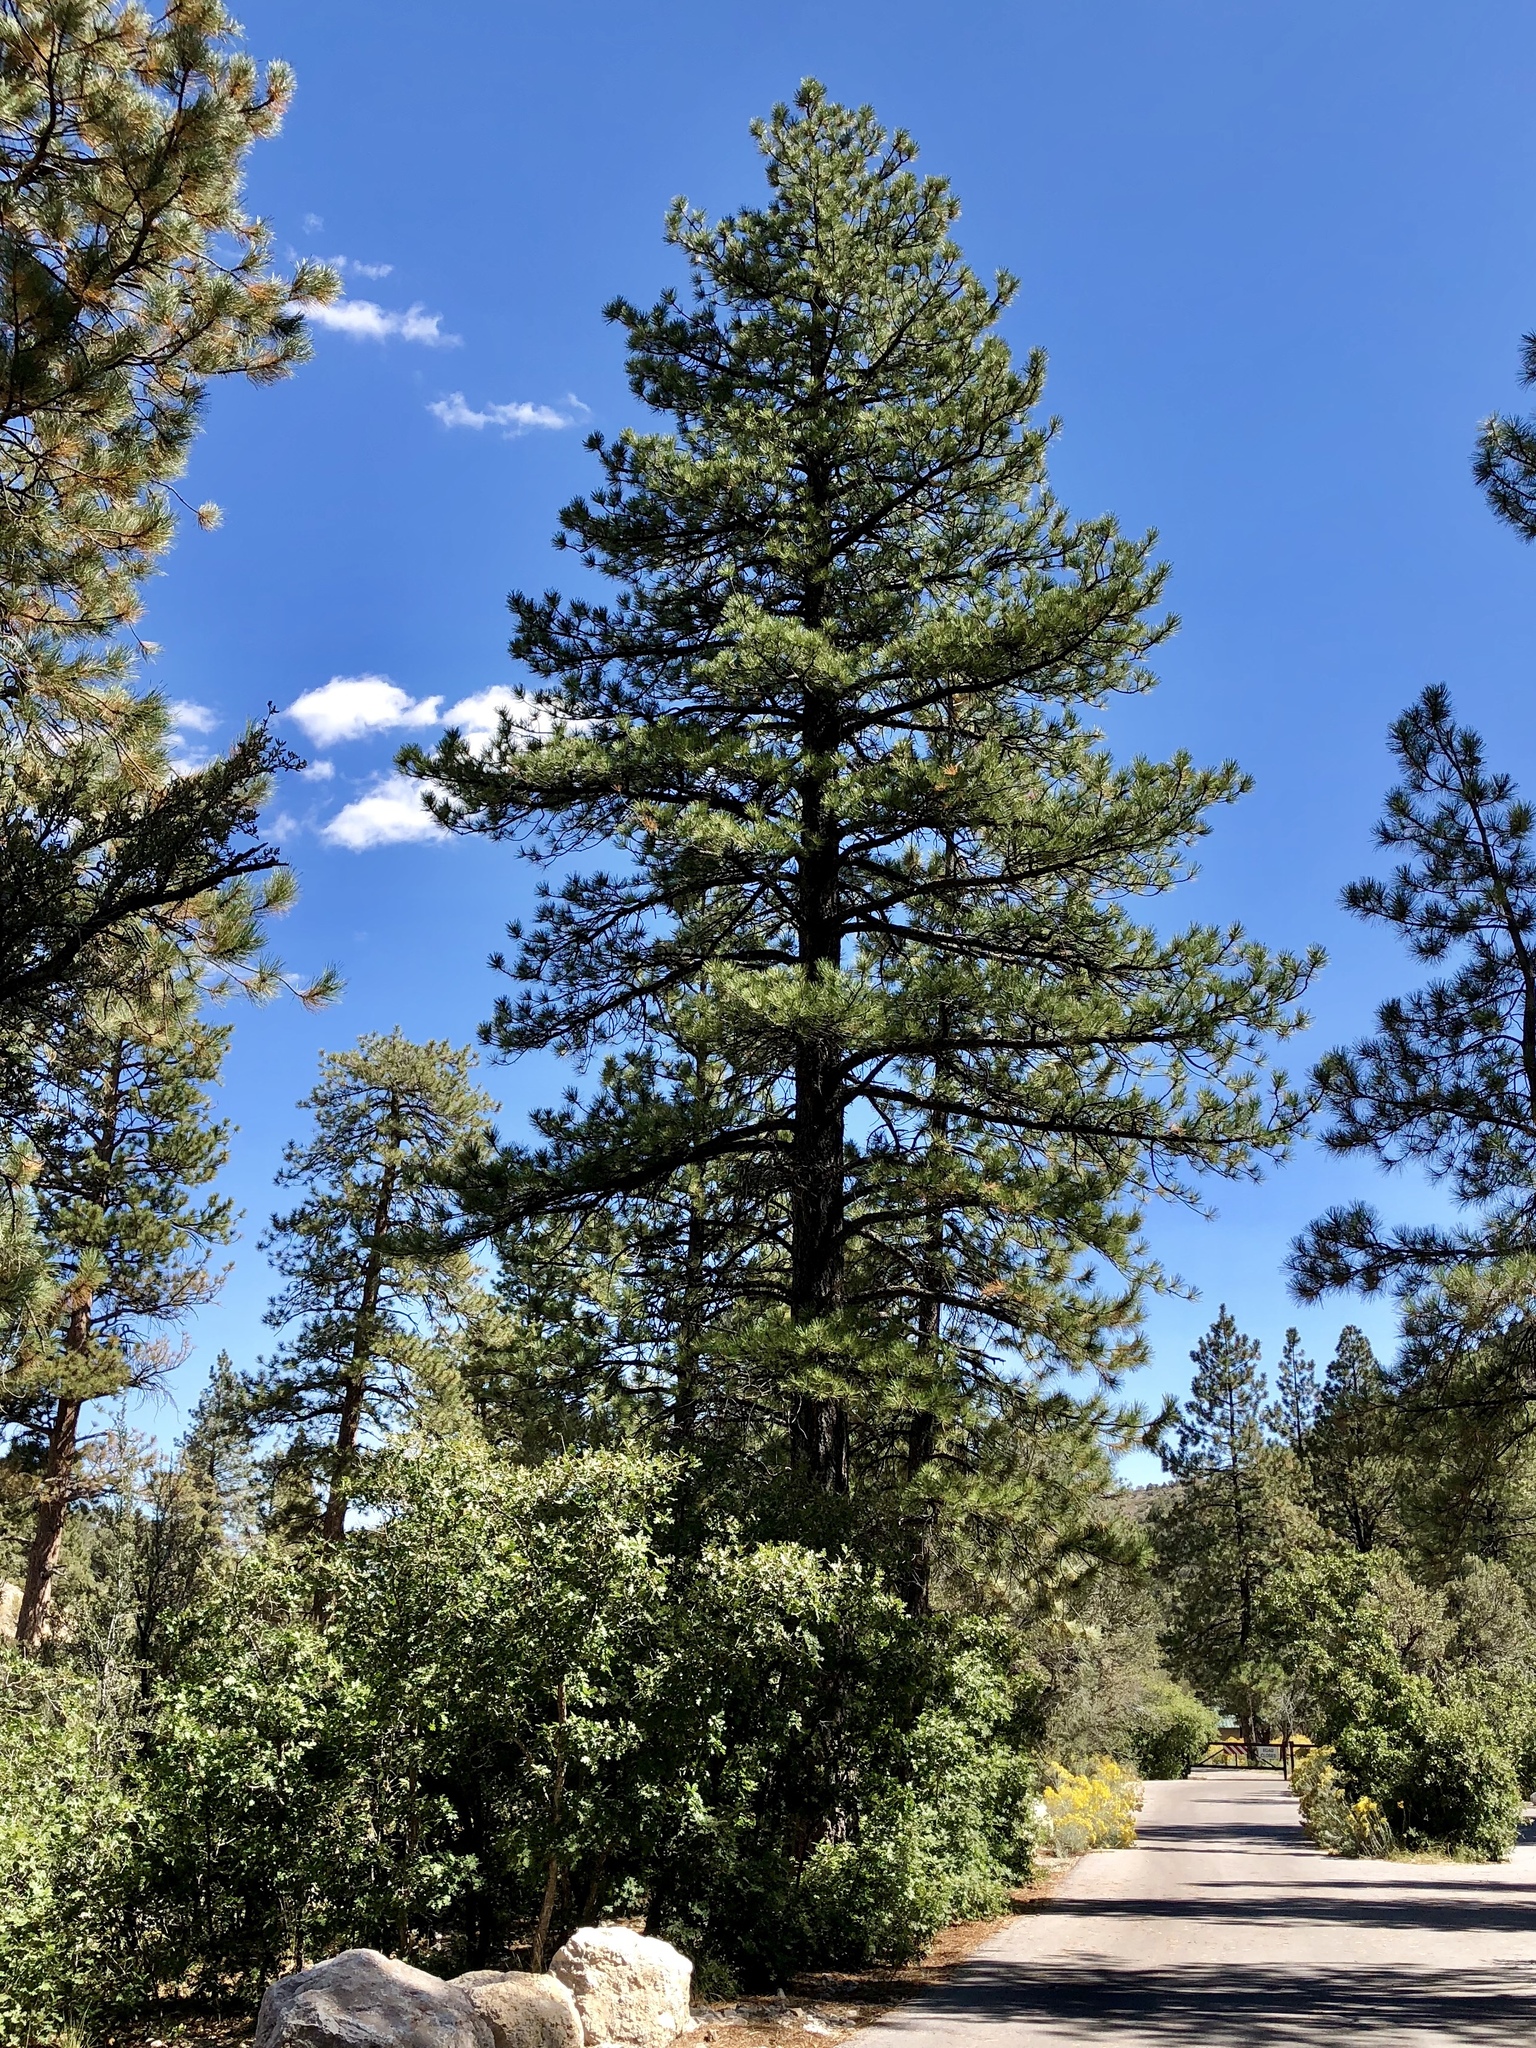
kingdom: Plantae
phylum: Tracheophyta
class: Pinopsida
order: Pinales
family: Pinaceae
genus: Pinus
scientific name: Pinus ponderosa
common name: Western yellow-pine
